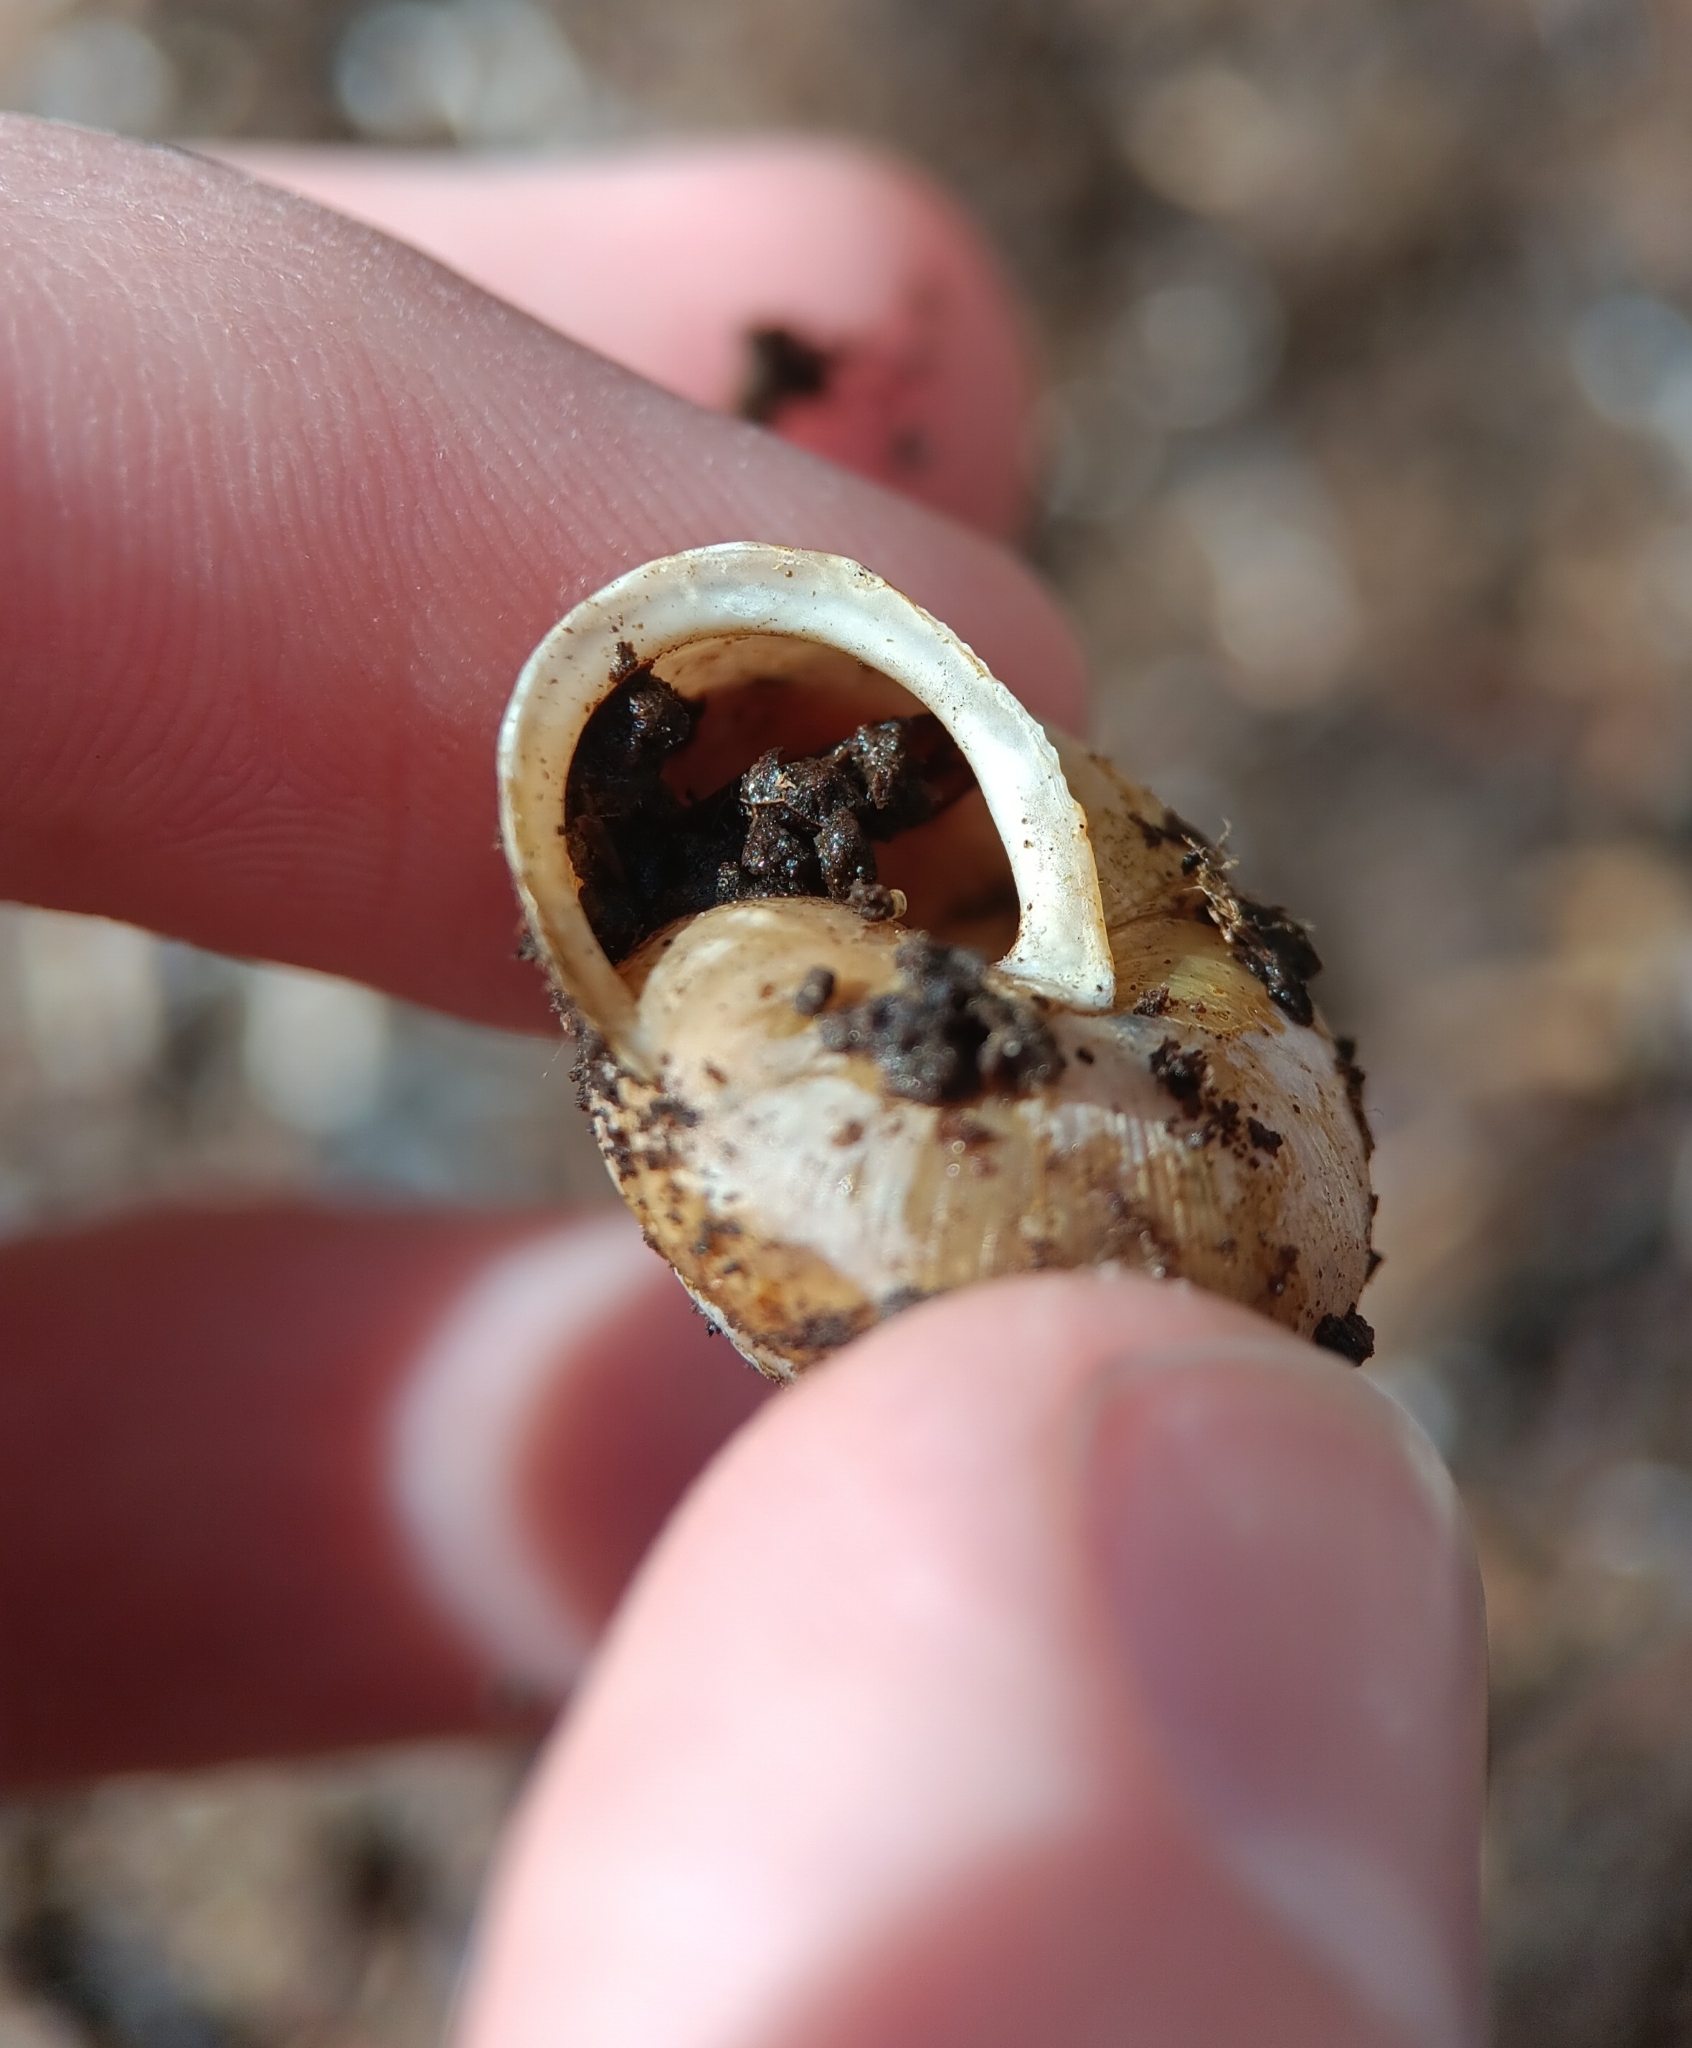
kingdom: Animalia
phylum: Mollusca
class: Gastropoda
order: Stylommatophora
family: Polygyridae
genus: Neohelix
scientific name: Neohelix albolabris
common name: Eastern whitelip
